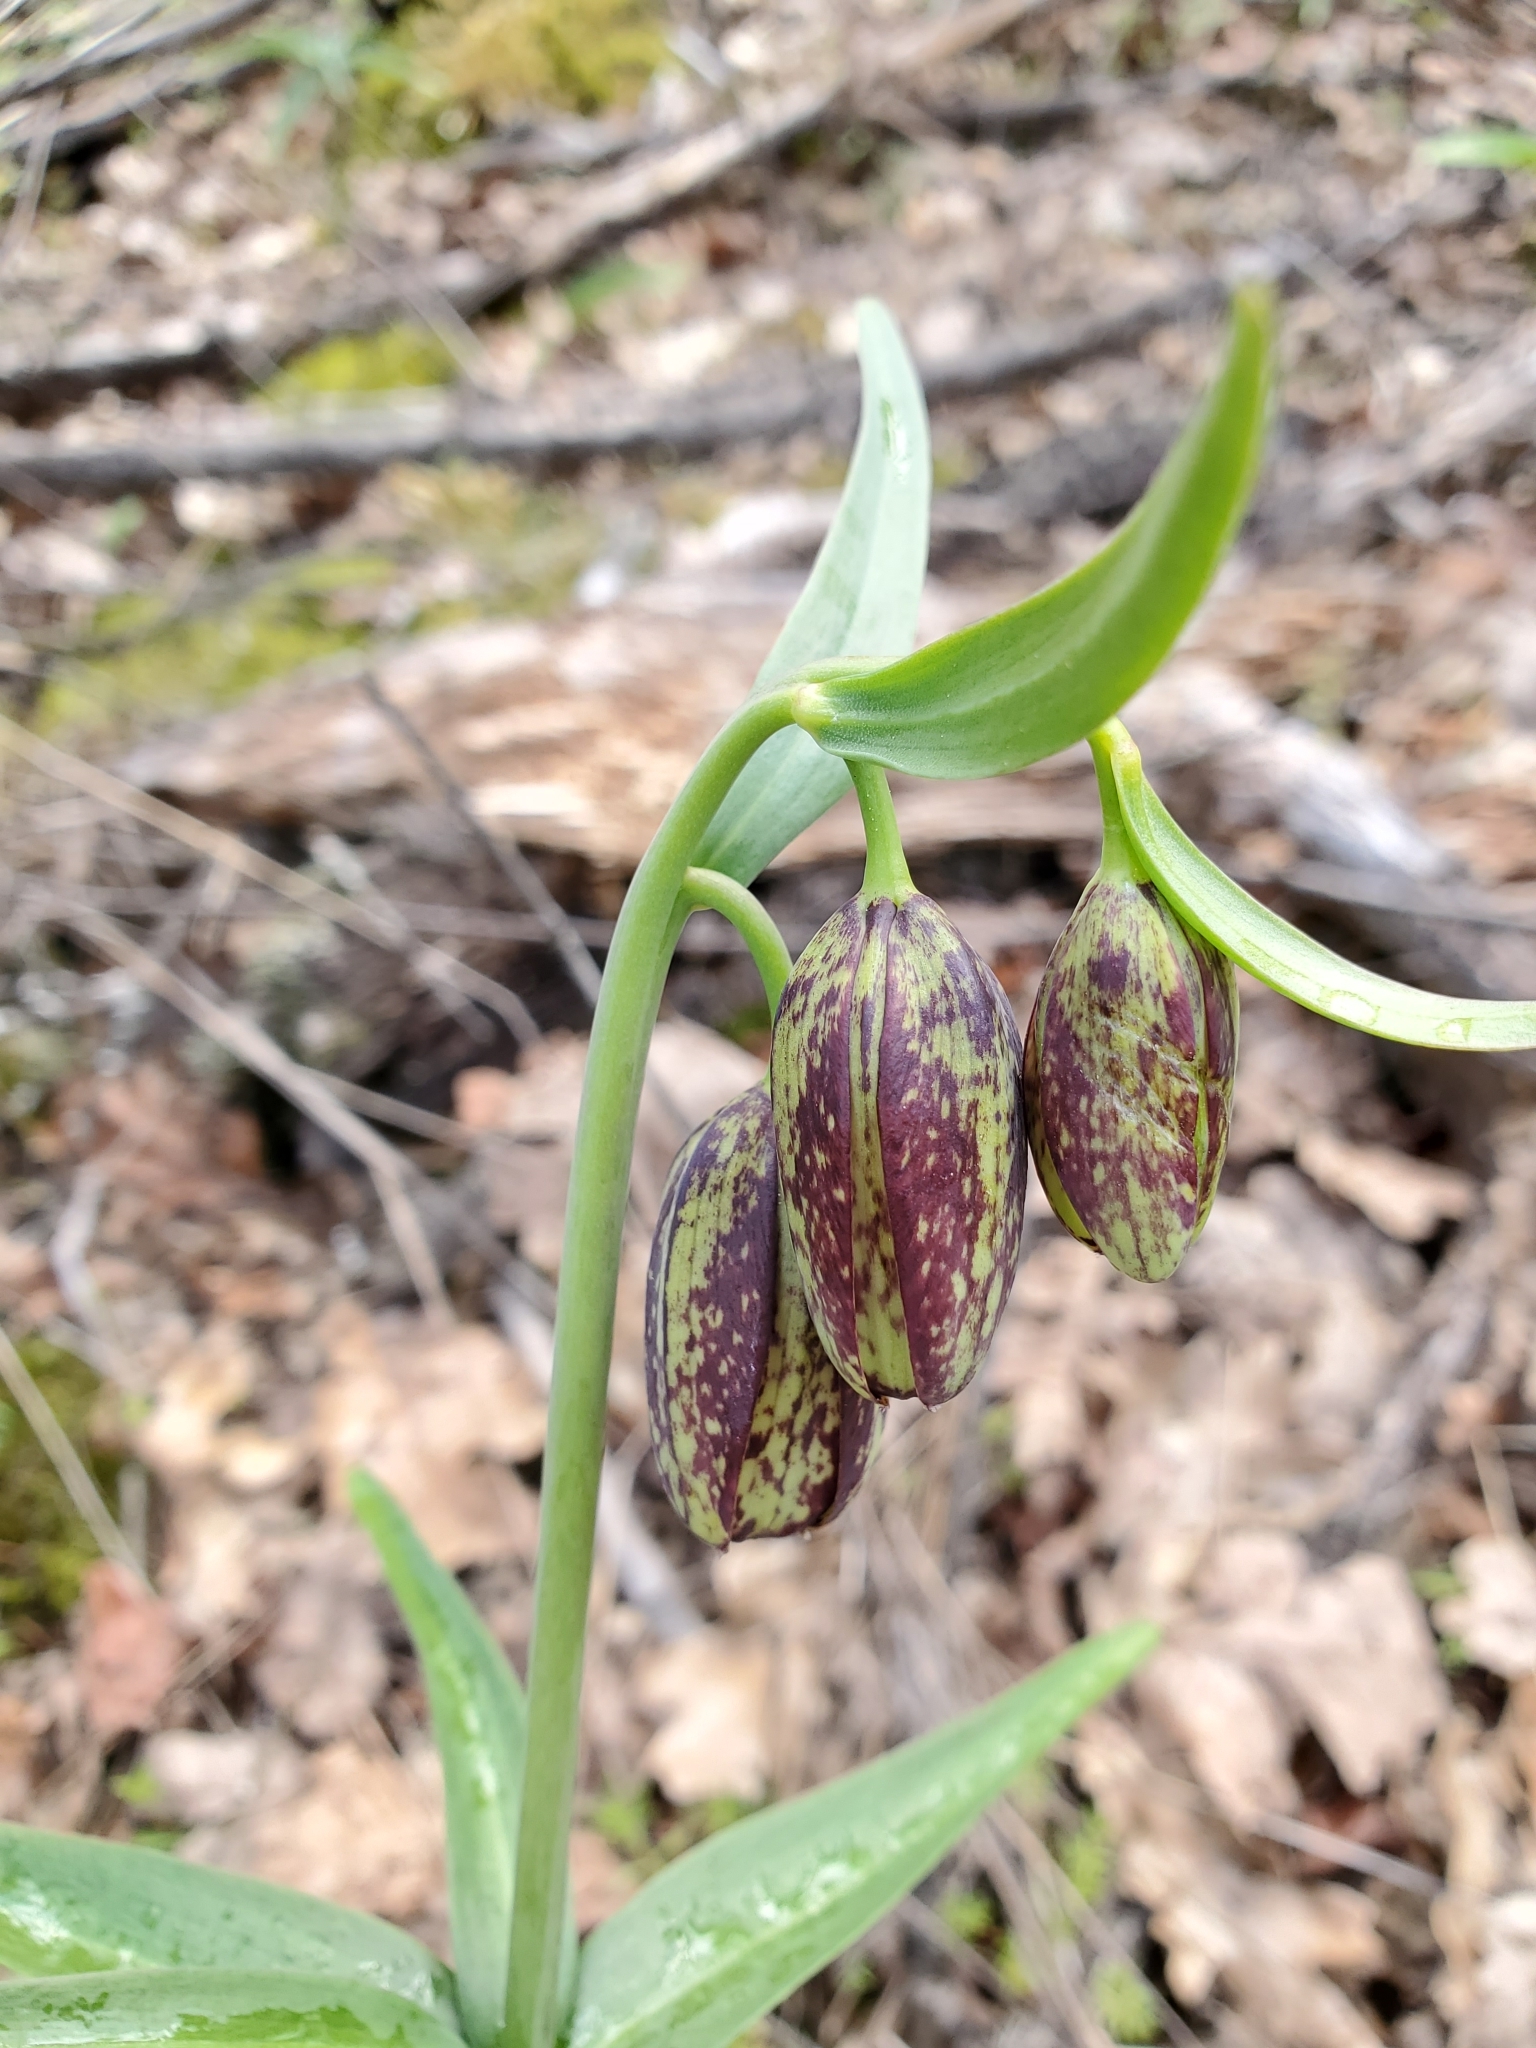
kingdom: Plantae
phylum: Tracheophyta
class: Liliopsida
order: Liliales
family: Liliaceae
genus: Fritillaria
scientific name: Fritillaria affinis
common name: Ojai fritillary
